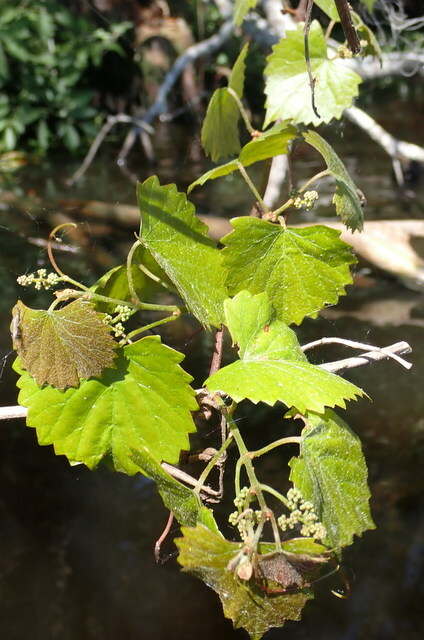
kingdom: Plantae
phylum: Tracheophyta
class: Magnoliopsida
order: Vitales
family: Vitaceae
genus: Vitis
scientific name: Vitis rotundifolia
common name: Muscadine grape
